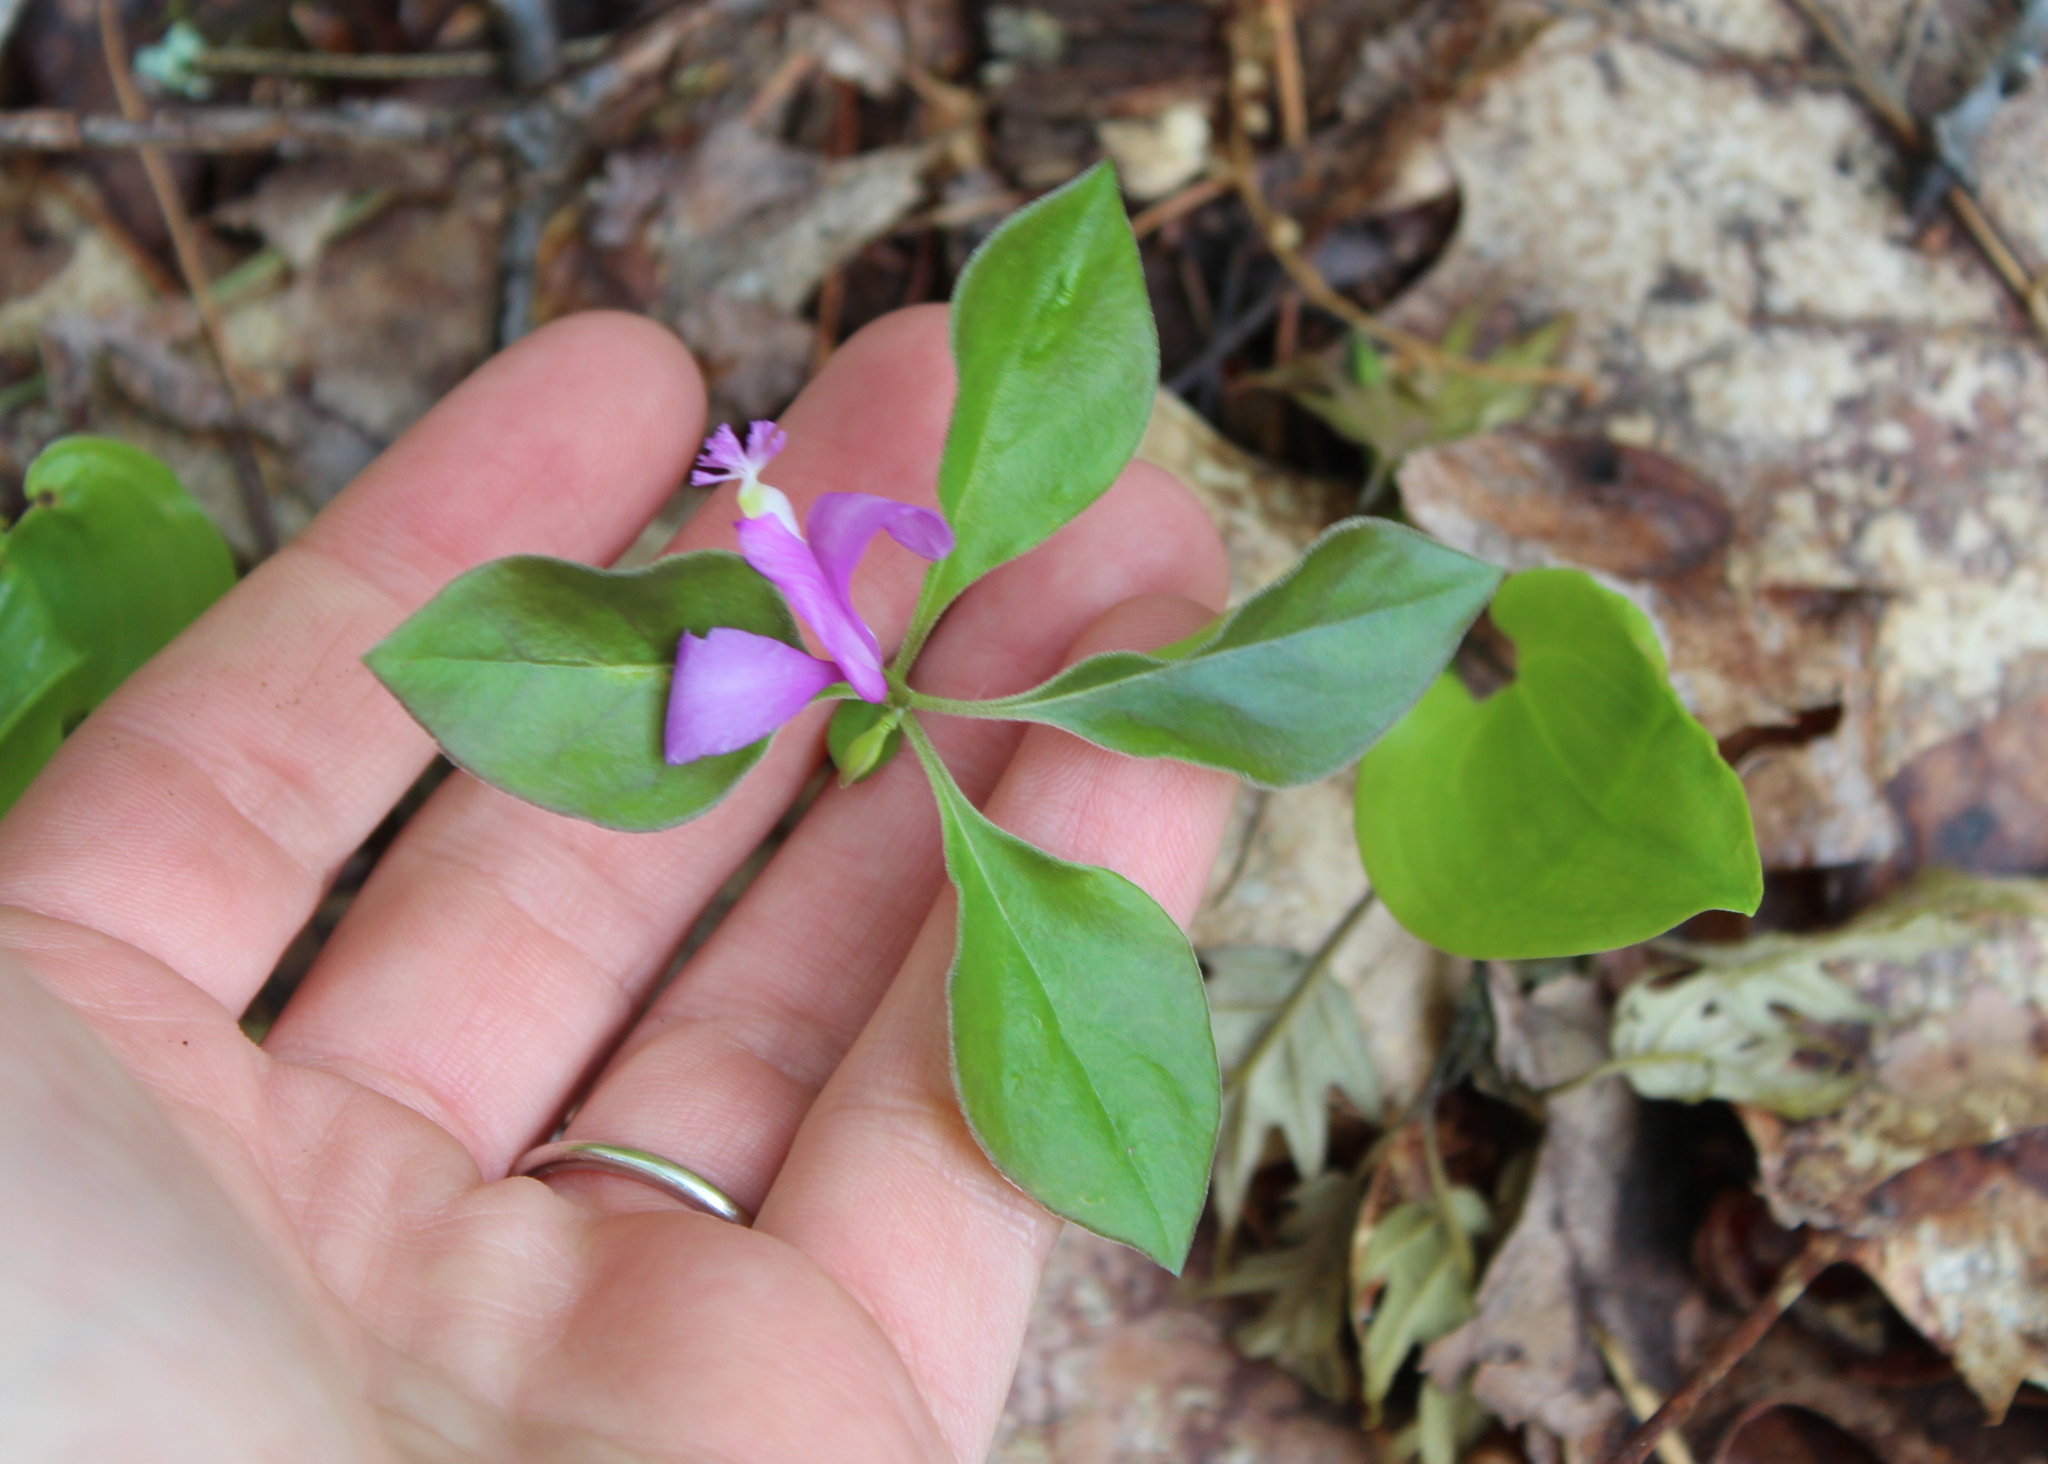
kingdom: Plantae
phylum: Tracheophyta
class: Magnoliopsida
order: Fabales
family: Polygalaceae
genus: Polygaloides
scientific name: Polygaloides paucifolia
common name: Bird-on-the-wing
